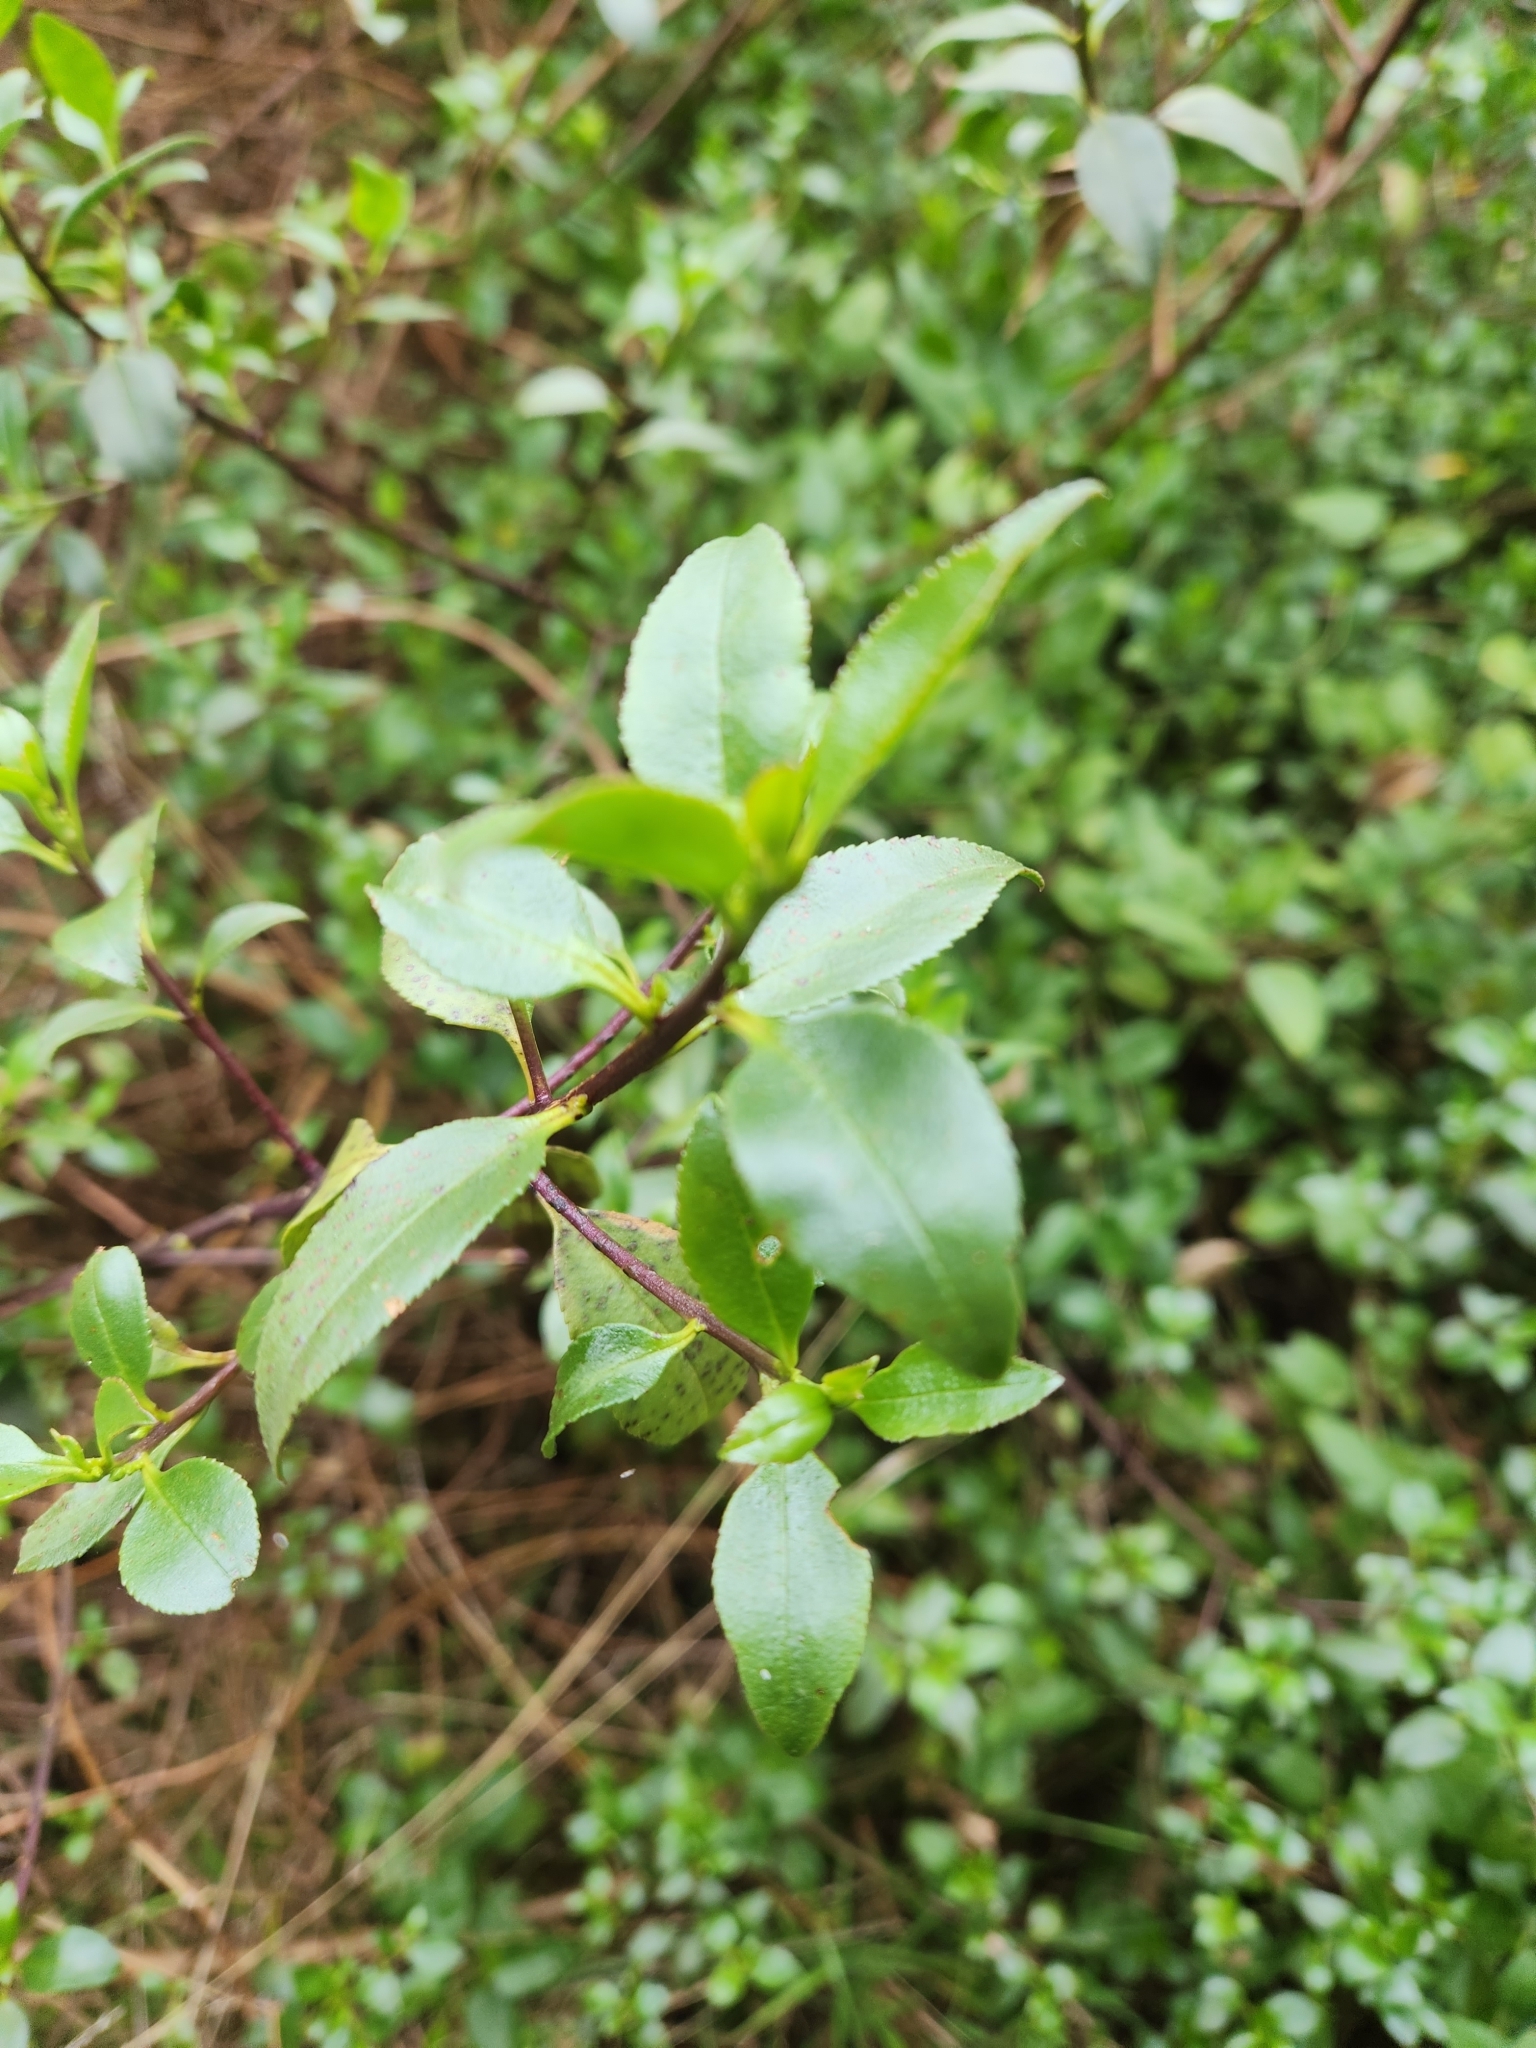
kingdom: Plantae
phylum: Tracheophyta
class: Magnoliopsida
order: Lamiales
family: Scrophulariaceae
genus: Myoporum
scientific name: Myoporum petiolatum
